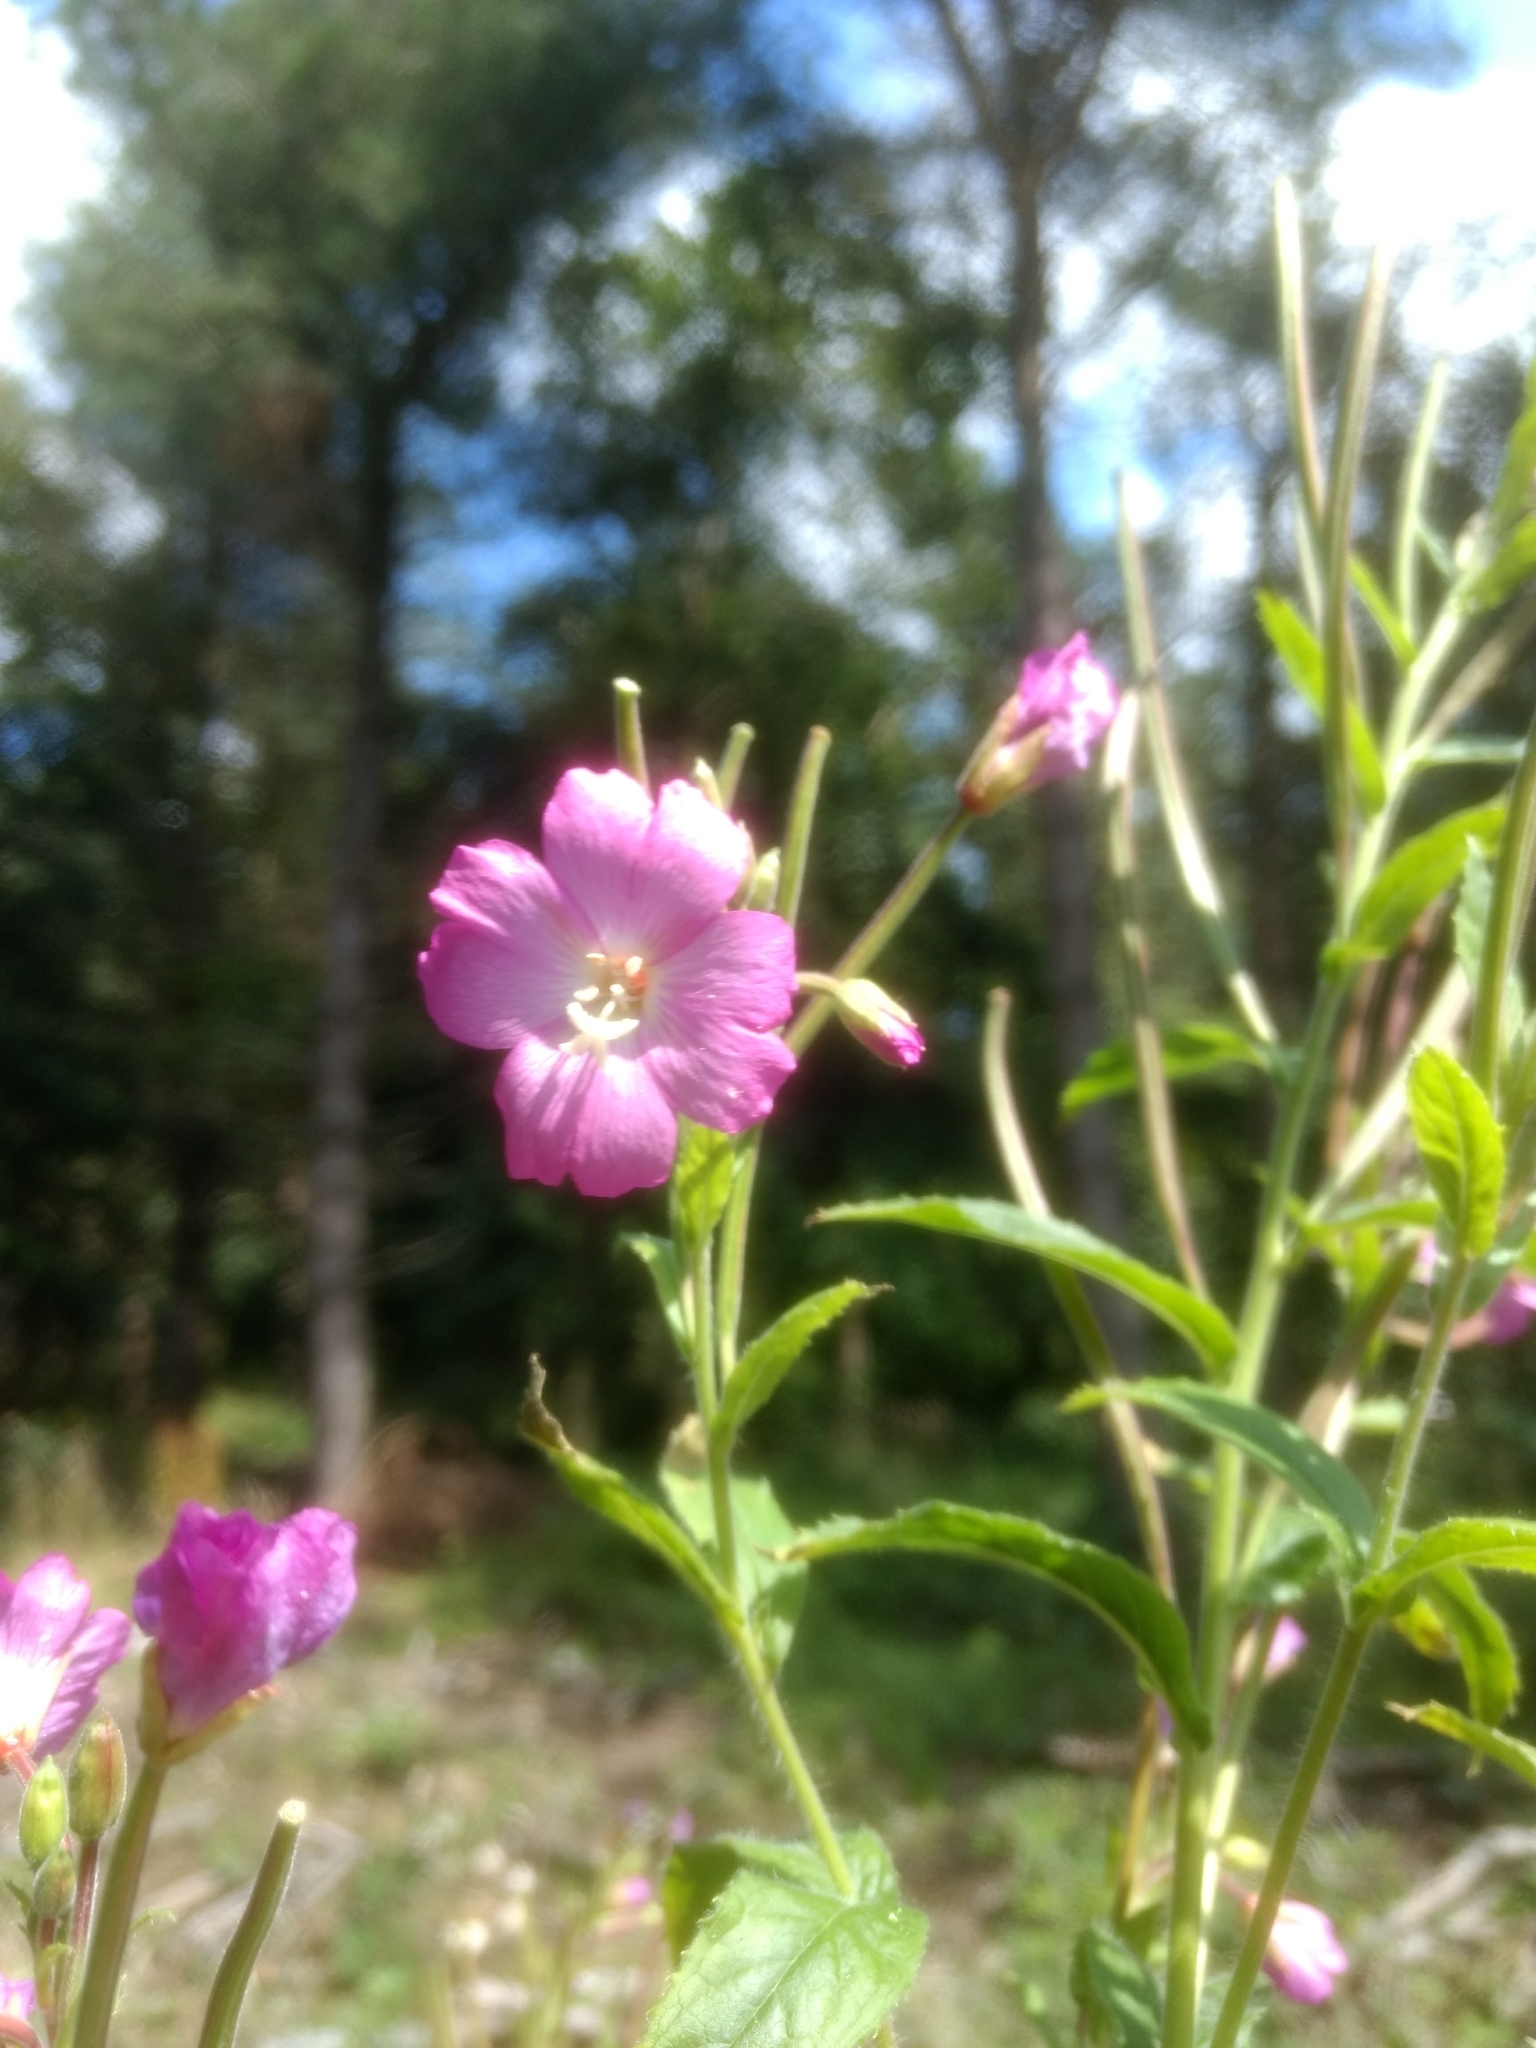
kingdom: Plantae
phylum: Tracheophyta
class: Magnoliopsida
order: Myrtales
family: Onagraceae
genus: Epilobium
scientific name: Epilobium hirsutum
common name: Great willowherb
